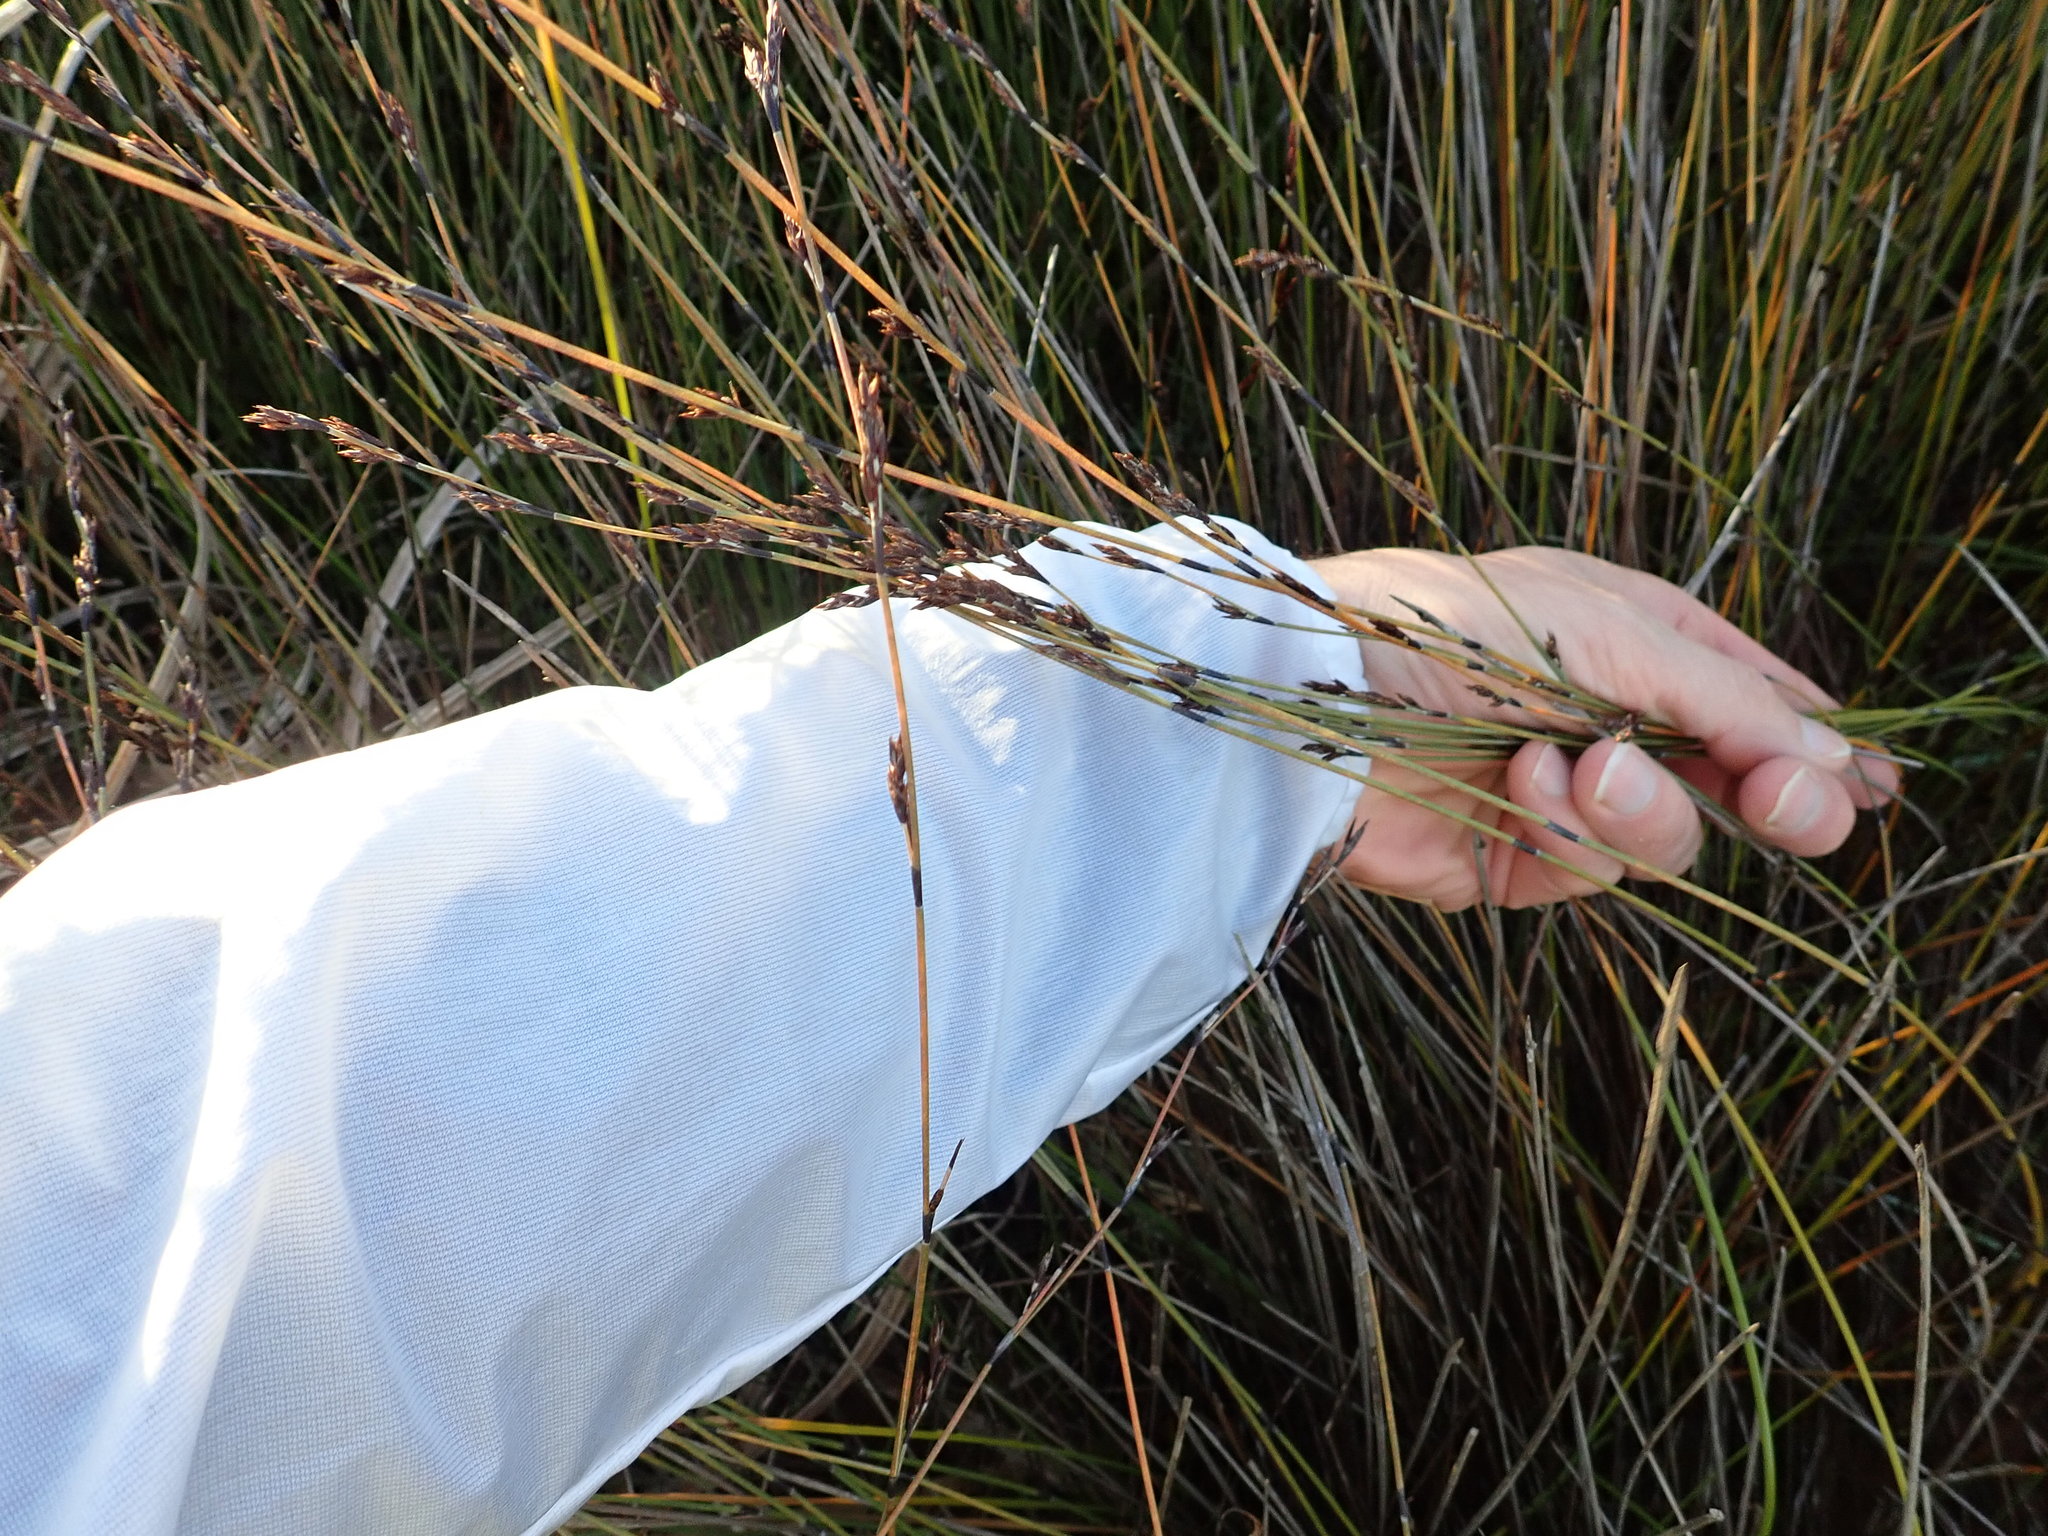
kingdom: Plantae
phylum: Tracheophyta
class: Liliopsida
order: Poales
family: Restionaceae
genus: Apodasmia
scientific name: Apodasmia similis
